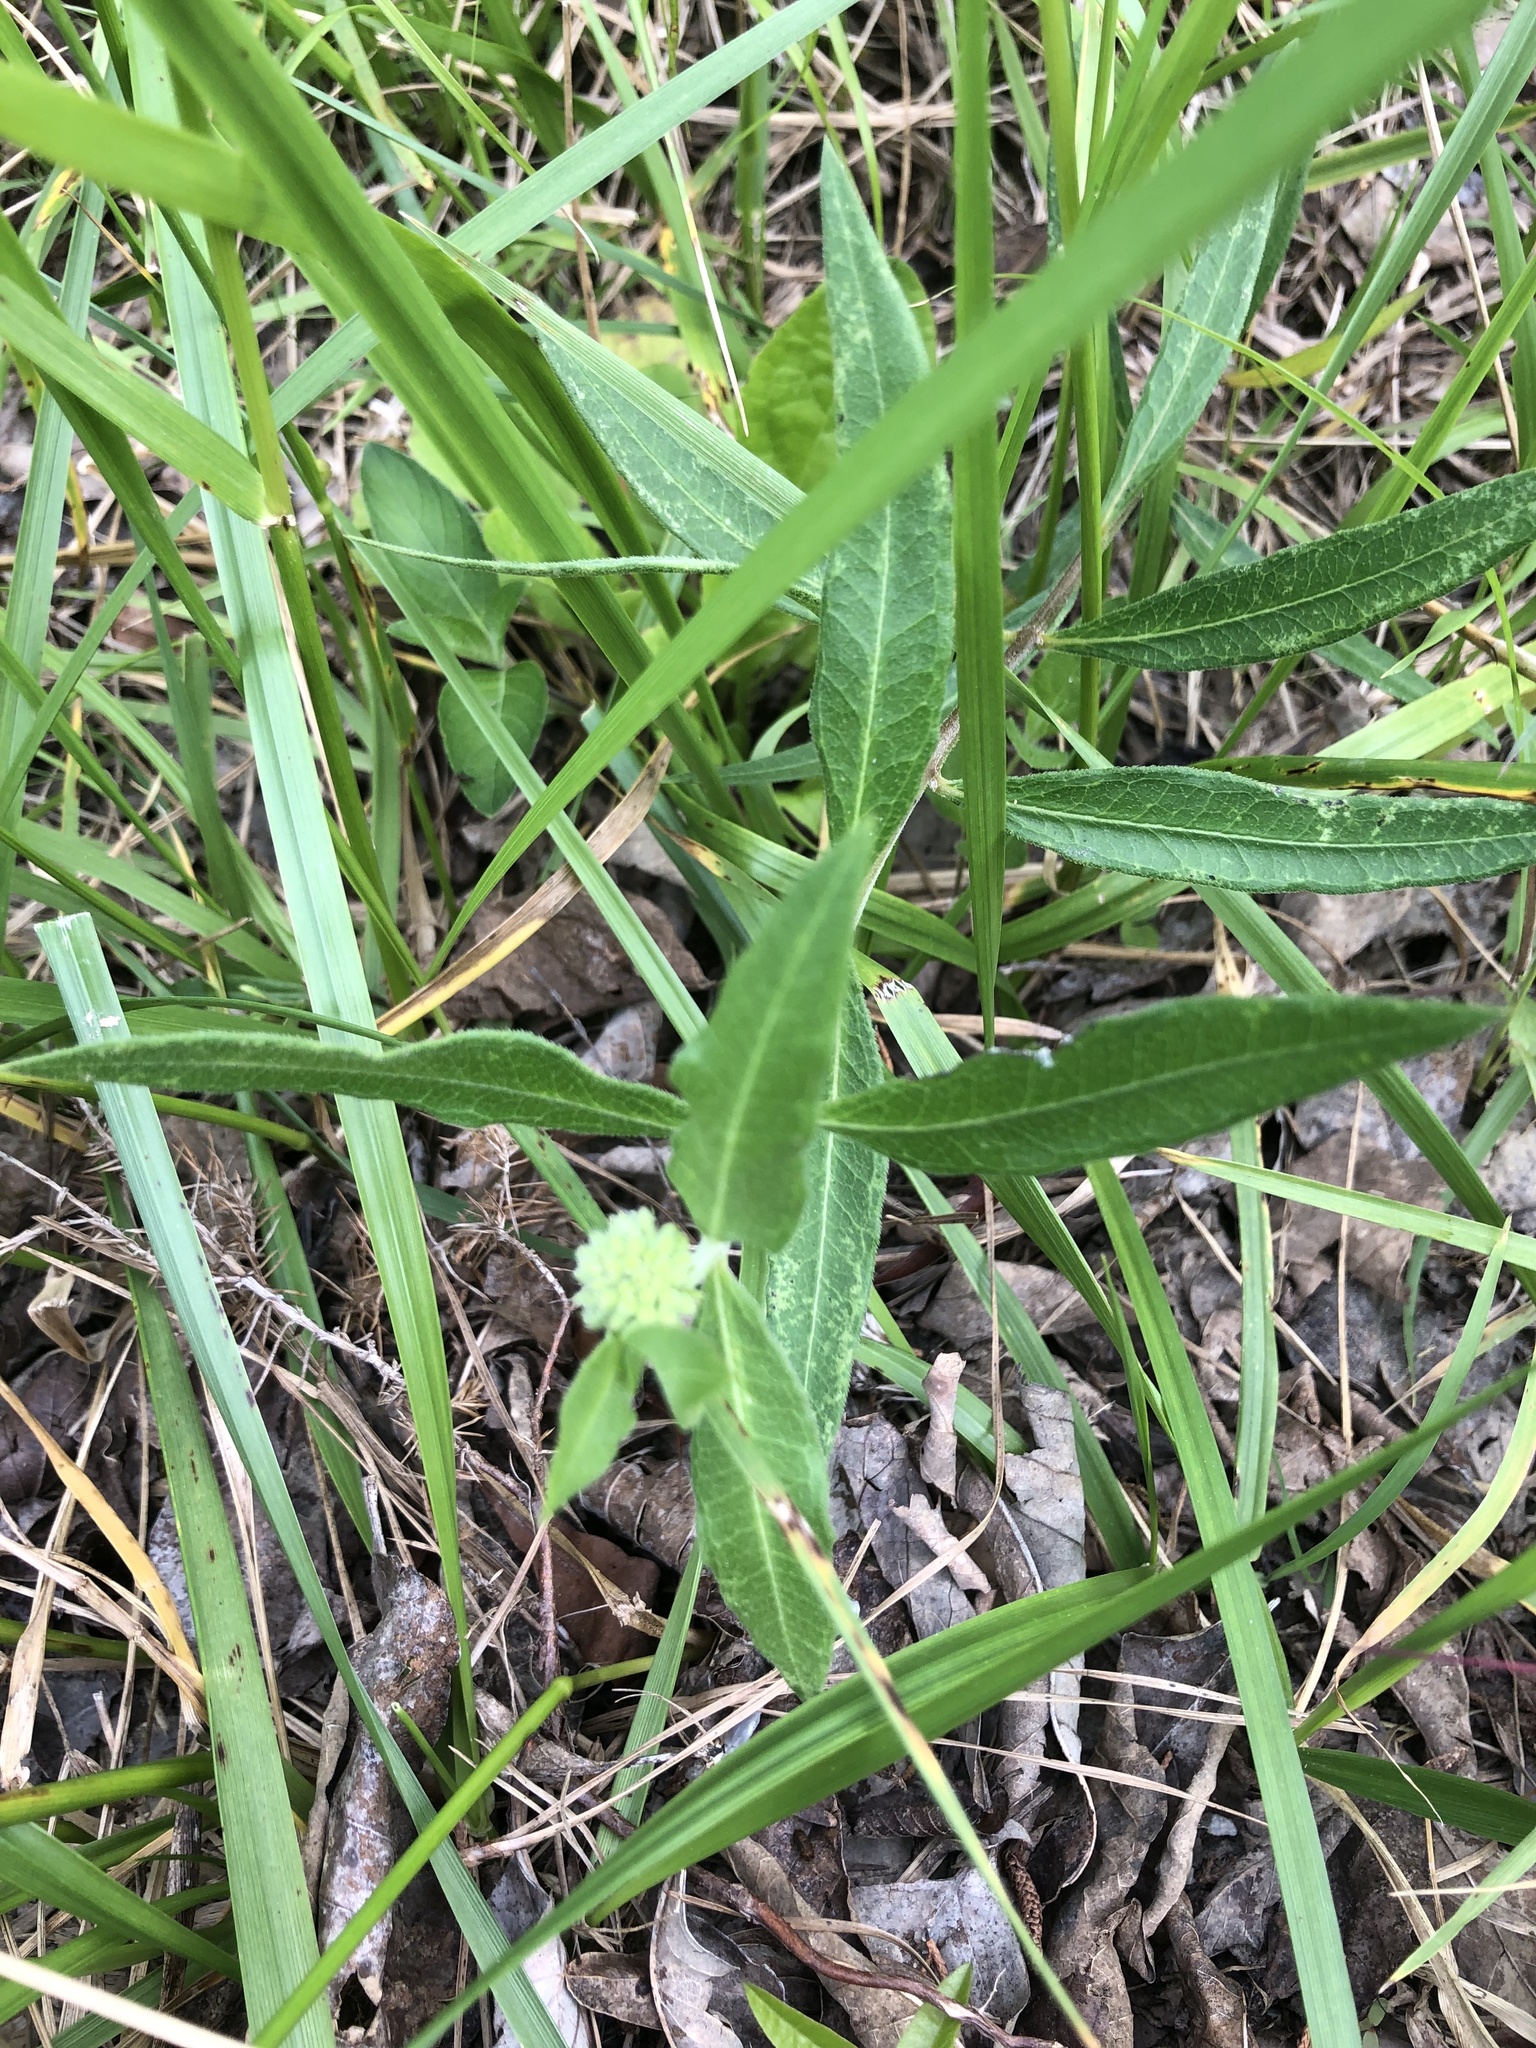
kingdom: Plantae
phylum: Tracheophyta
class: Magnoliopsida
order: Gentianales
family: Apocynaceae
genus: Asclepias
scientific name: Asclepias viridiflora
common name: Green comet milkweed
